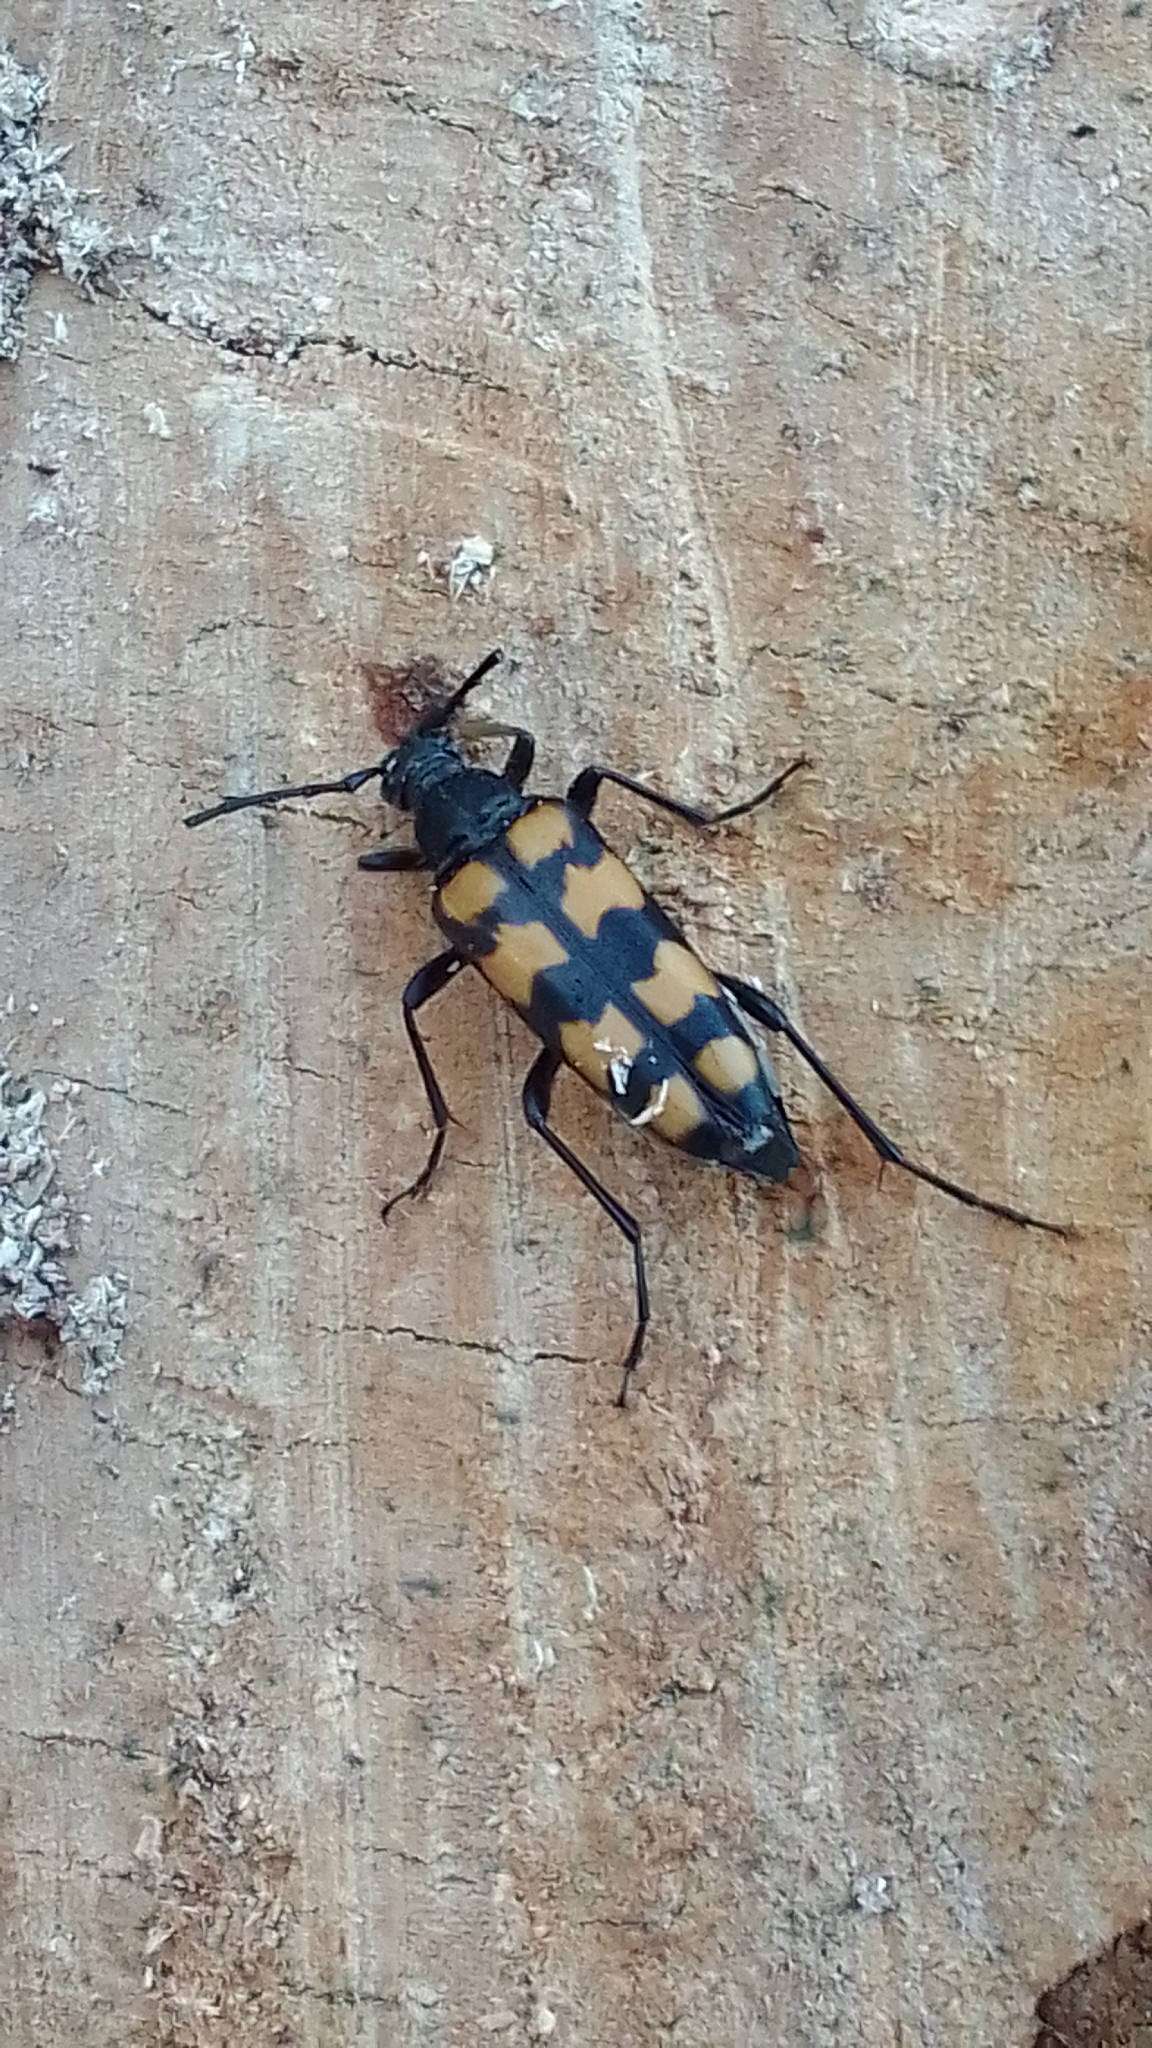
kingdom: Animalia
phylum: Arthropoda
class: Insecta
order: Coleoptera
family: Cerambycidae
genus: Leptura
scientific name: Leptura quadrifasciata
